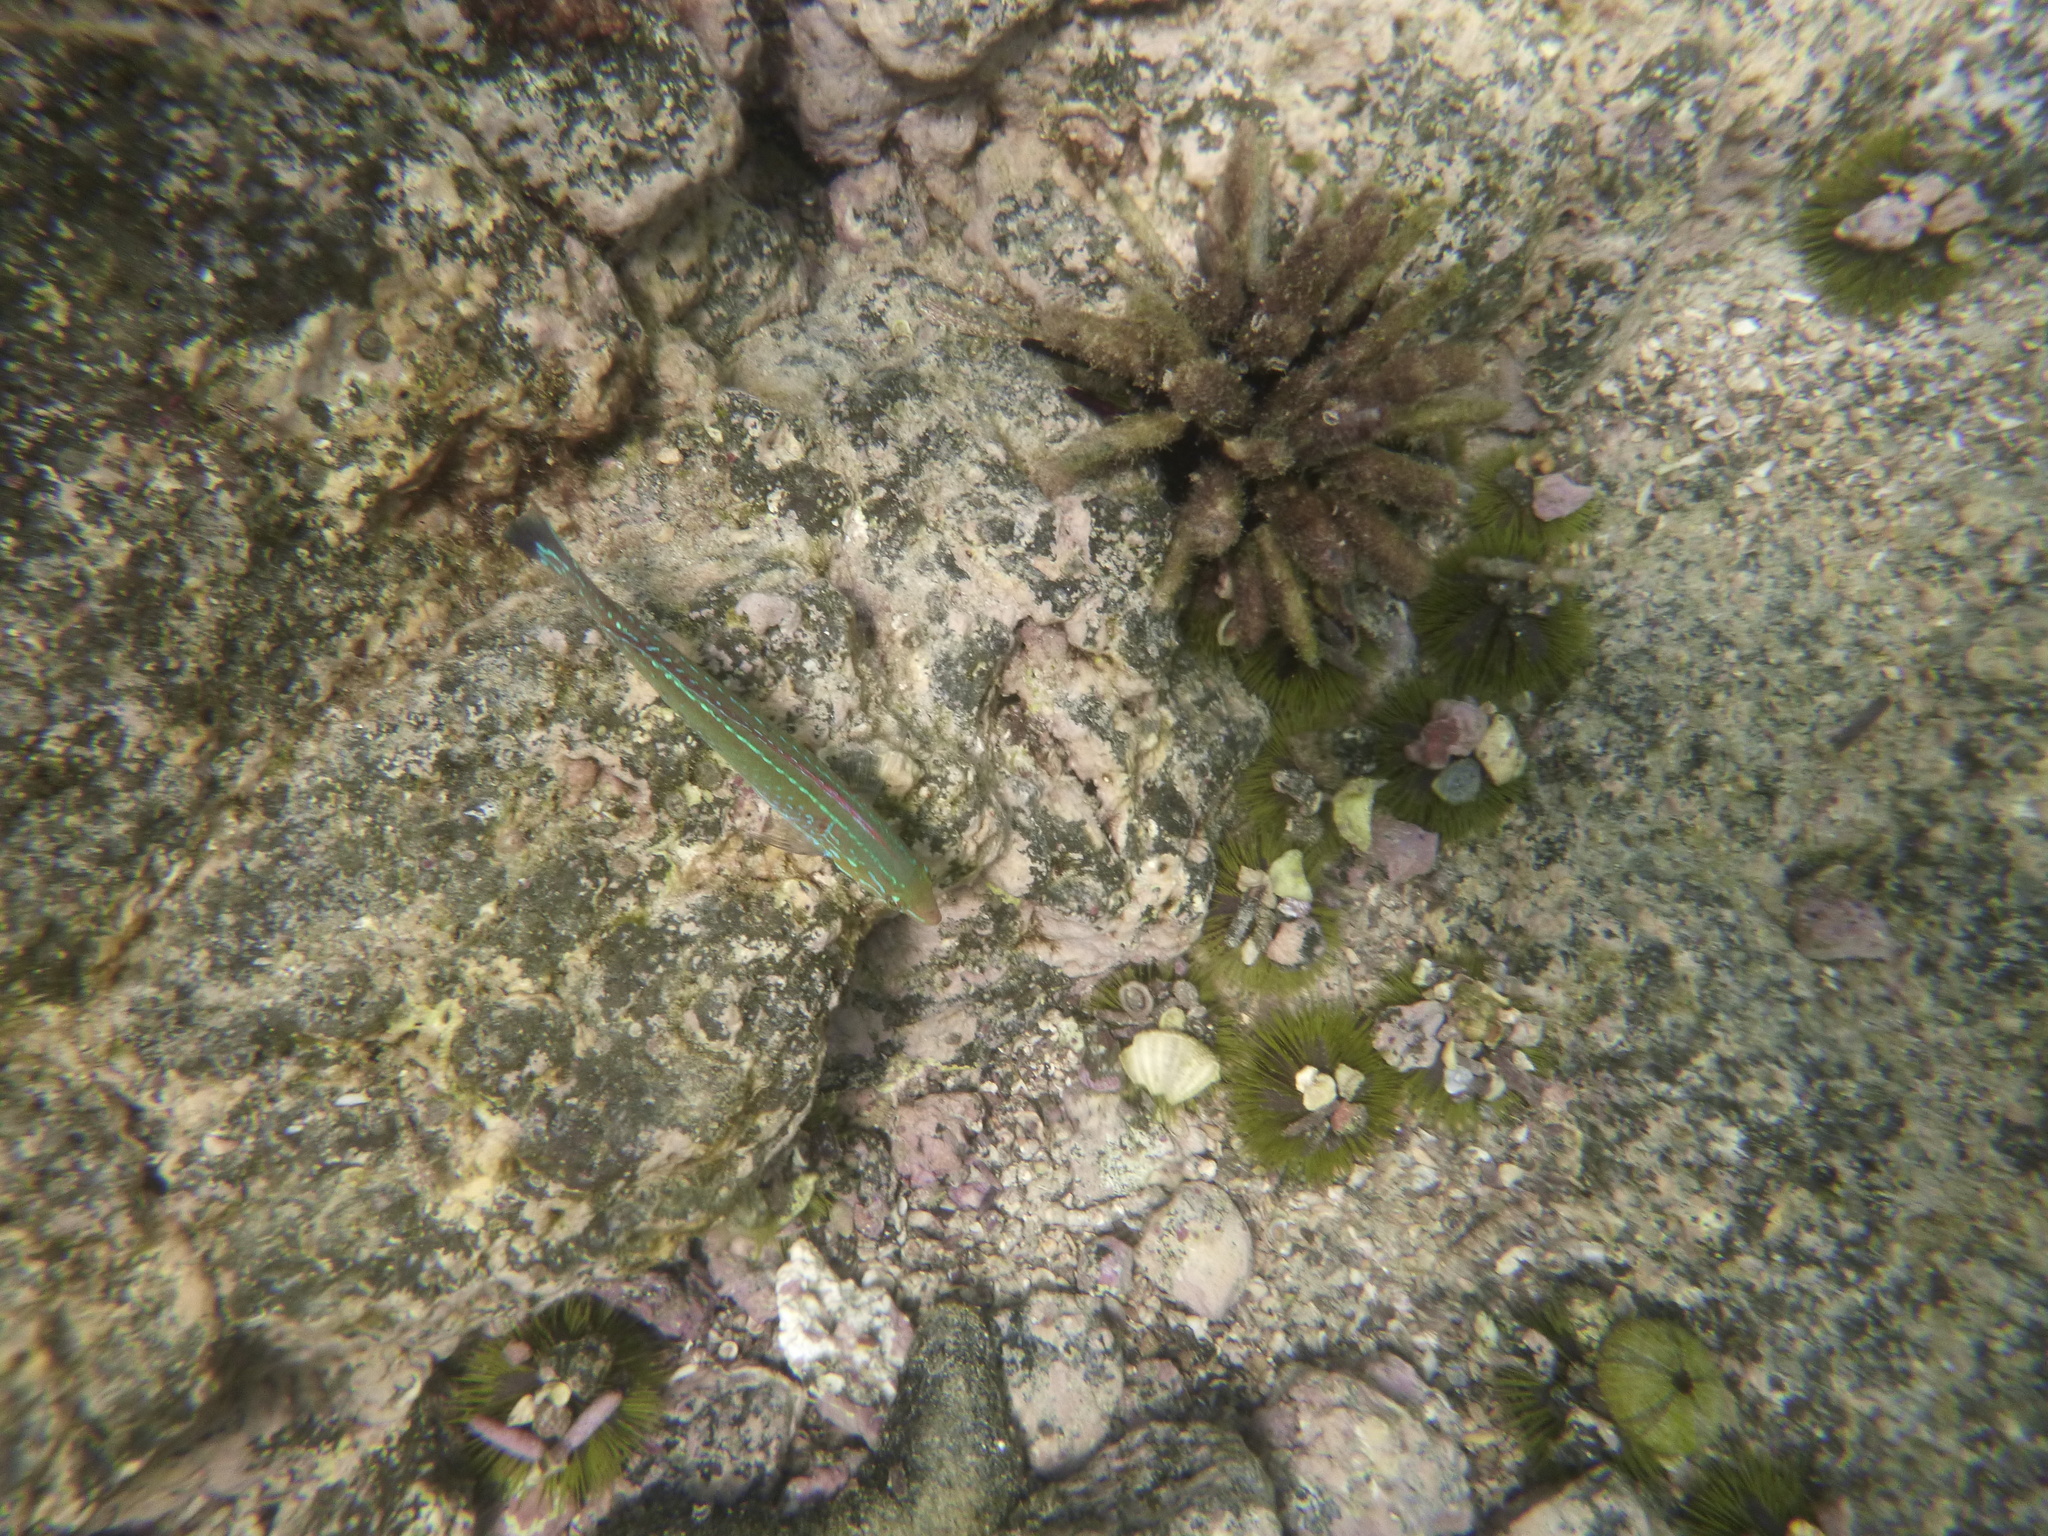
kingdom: Animalia
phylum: Chordata
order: Perciformes
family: Labridae
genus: Halichoeres
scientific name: Halichoeres dispilus
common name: Chameleon wrasse
